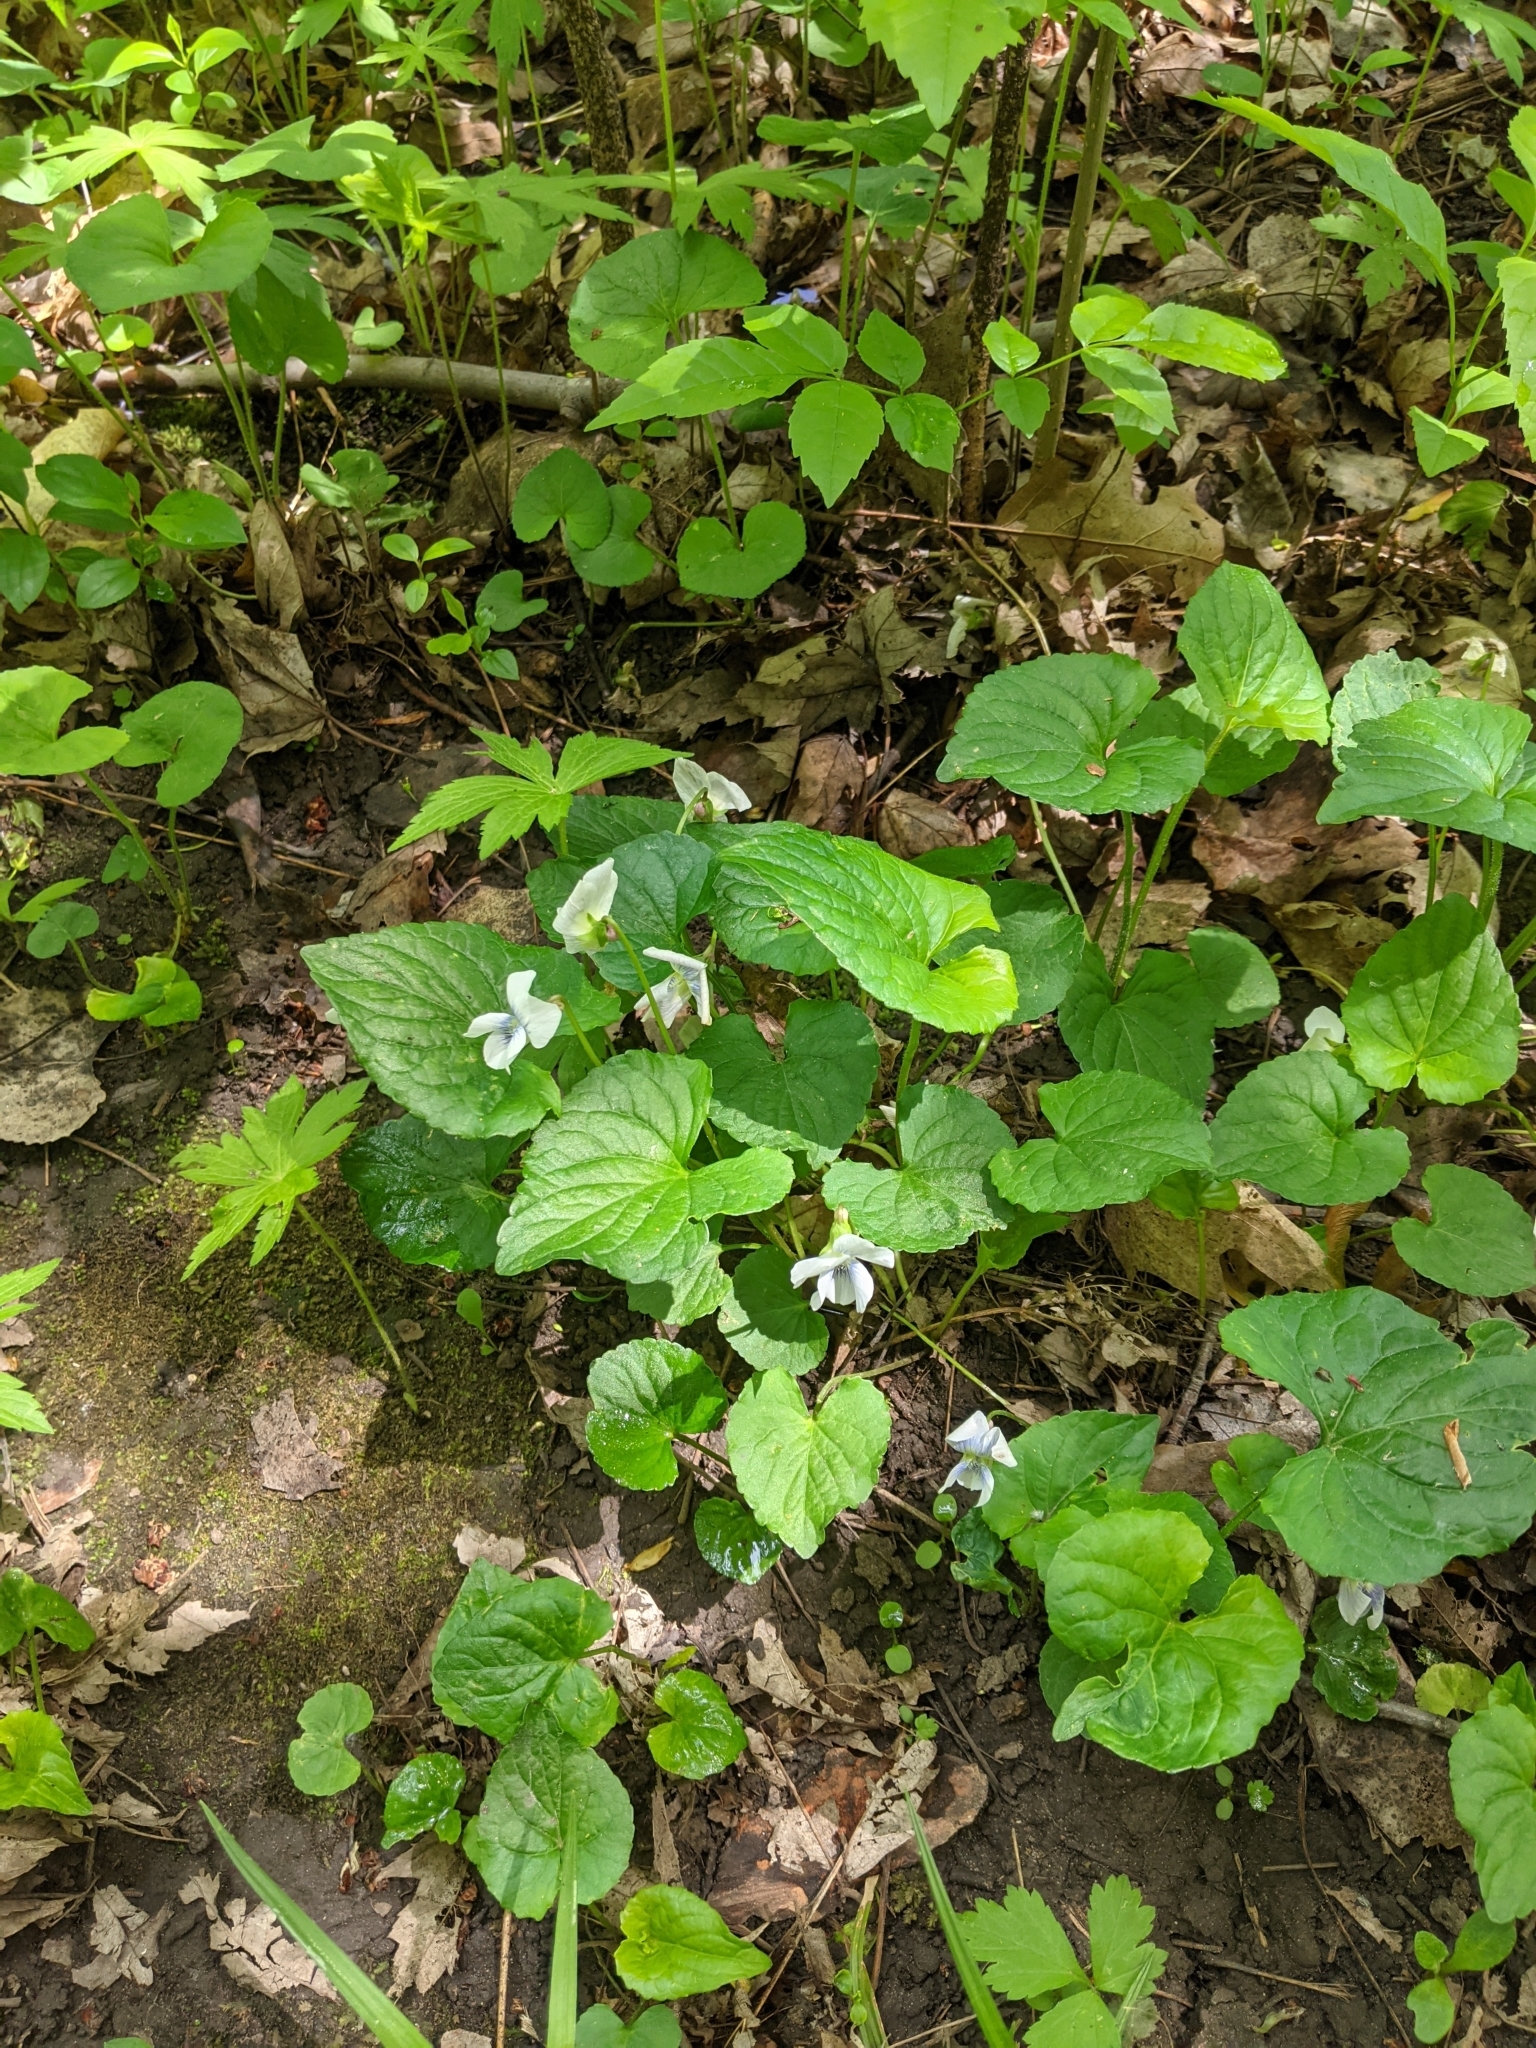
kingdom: Plantae
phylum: Tracheophyta
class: Magnoliopsida
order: Malpighiales
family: Violaceae
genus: Viola
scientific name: Viola sororia
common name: Dooryard violet
